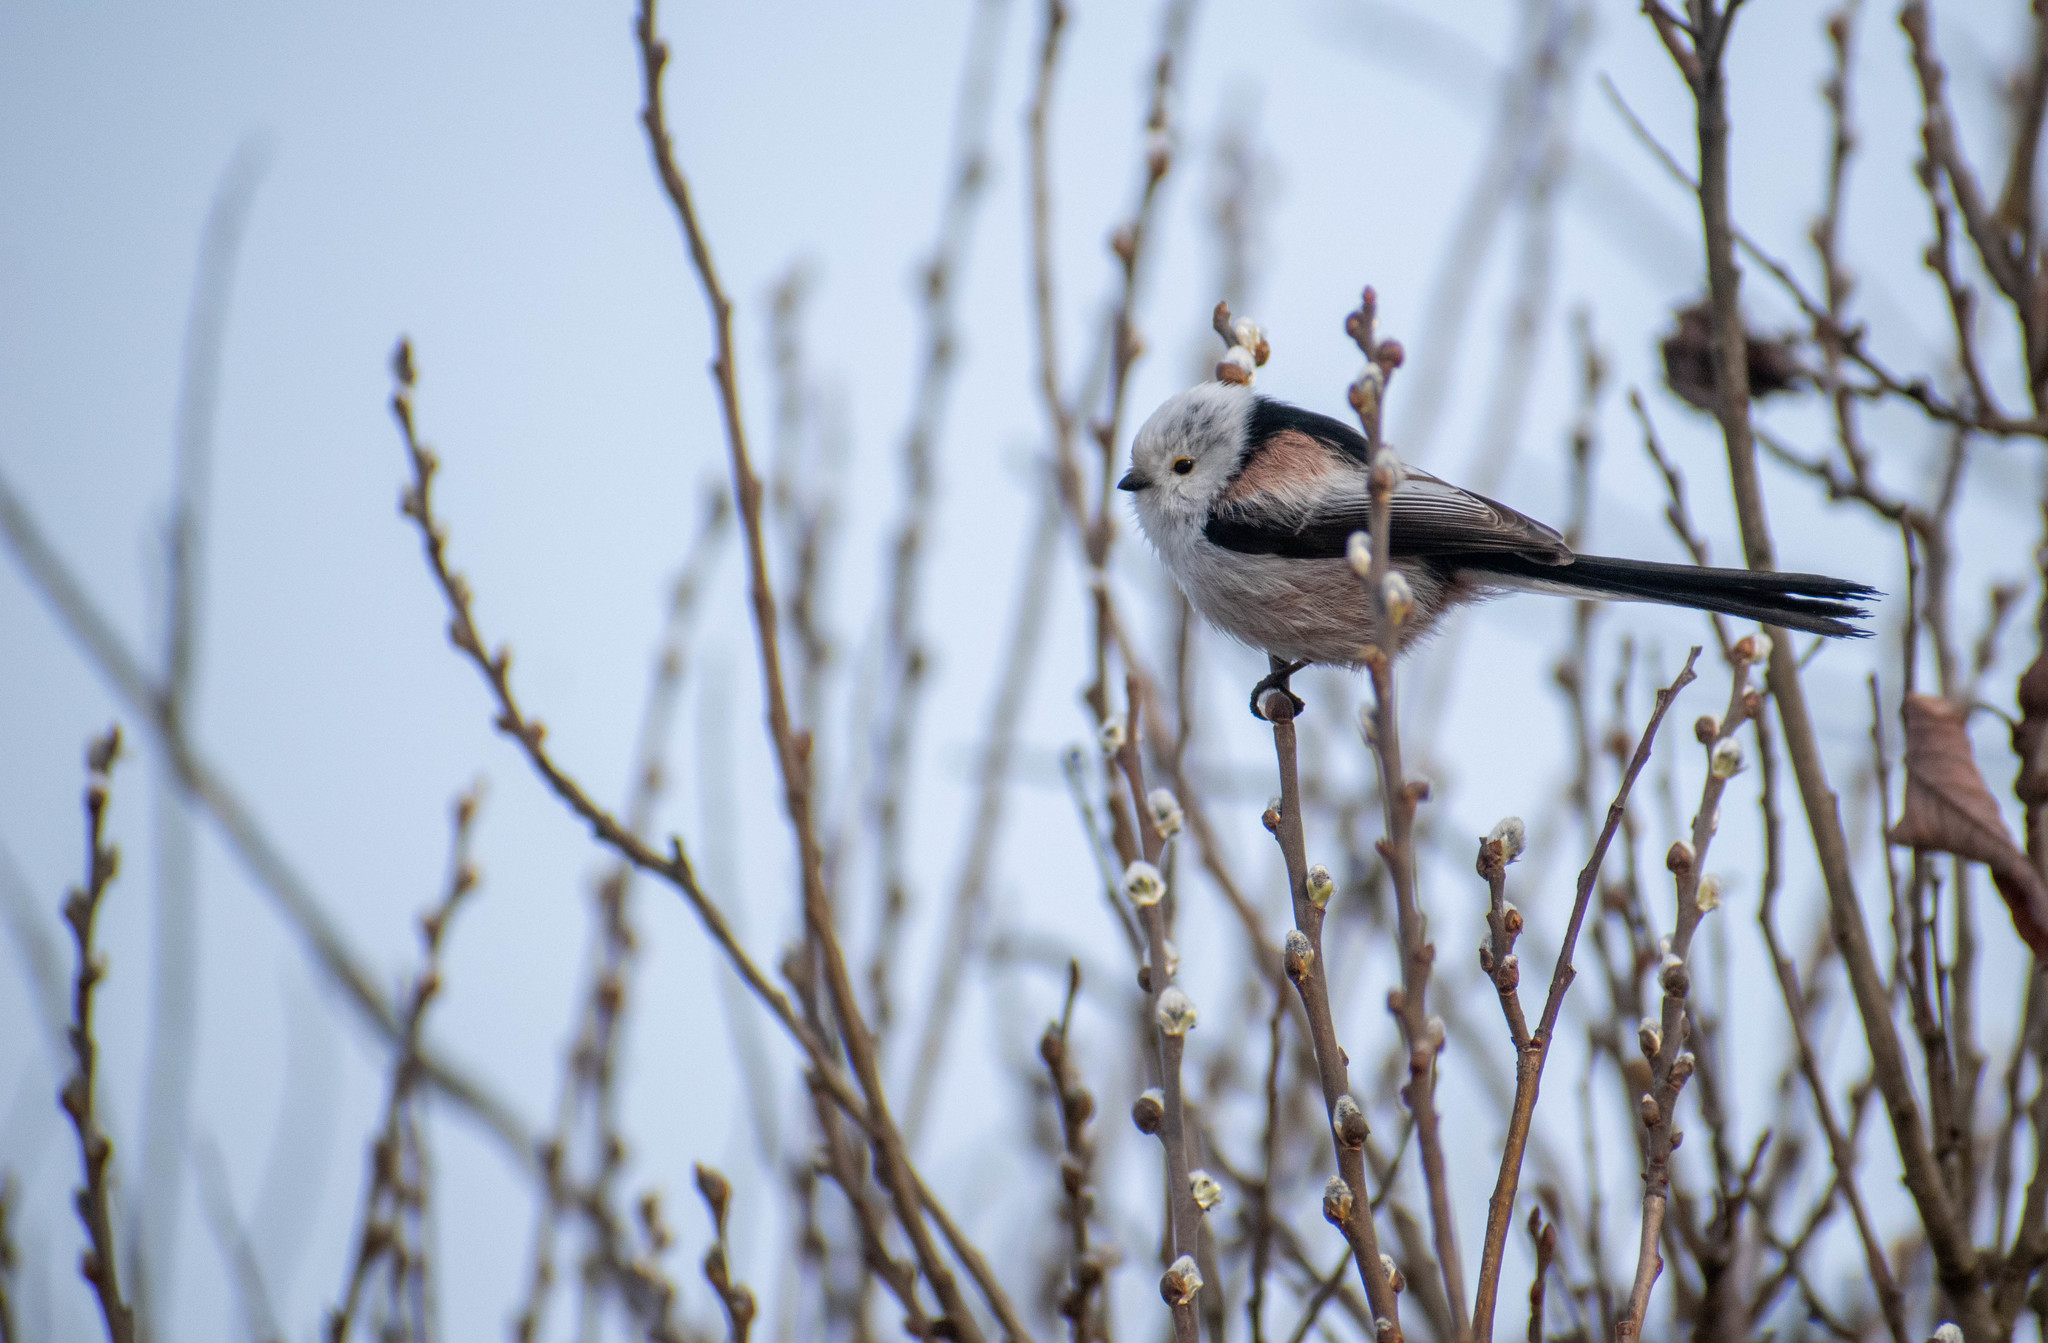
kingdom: Animalia
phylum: Chordata
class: Aves
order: Passeriformes
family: Aegithalidae
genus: Aegithalos
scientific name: Aegithalos caudatus
